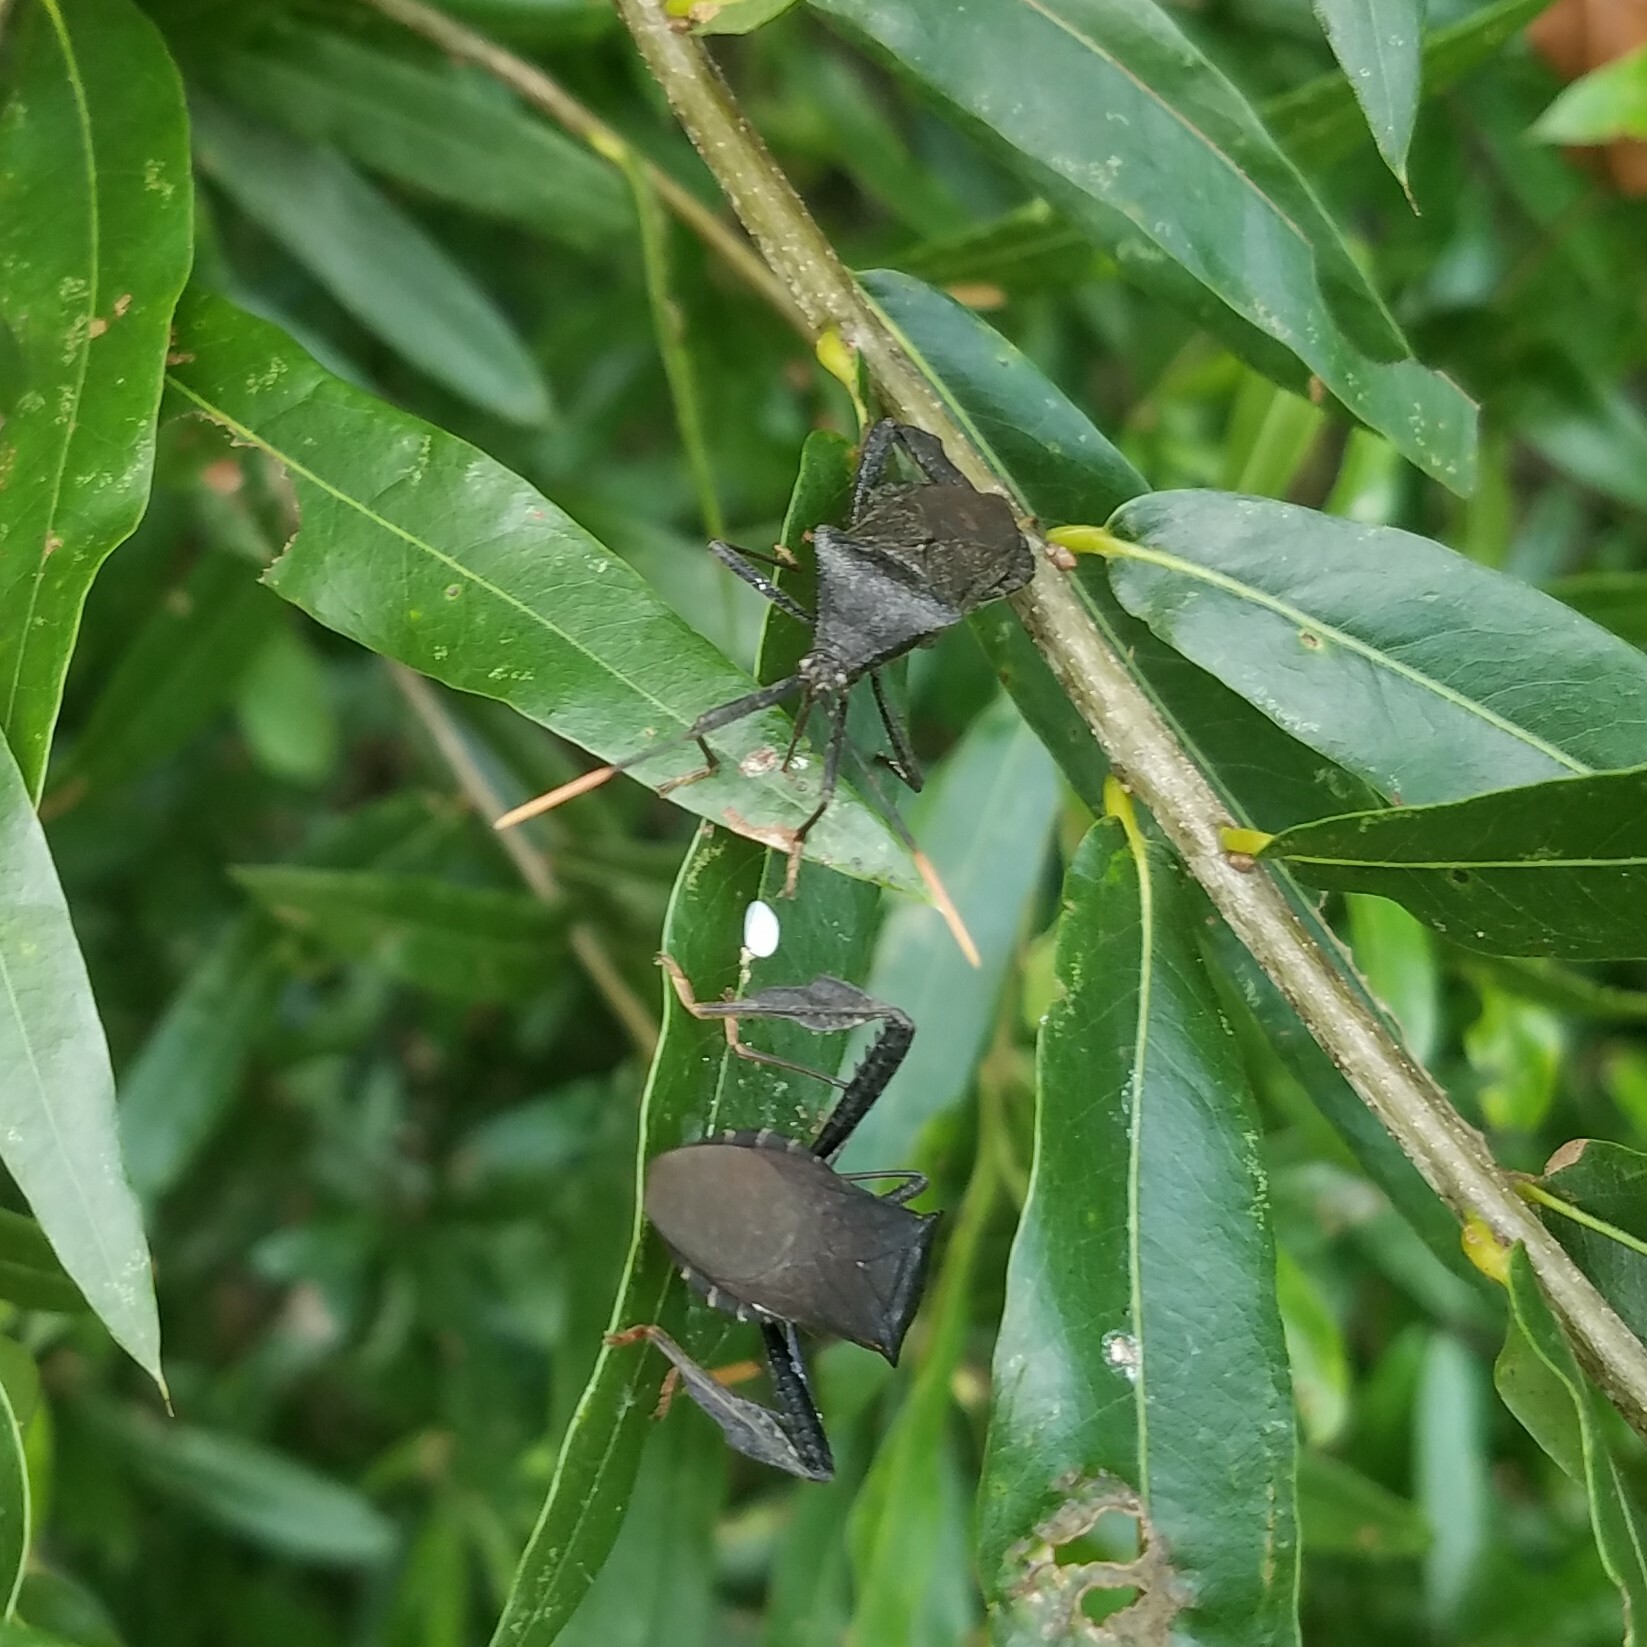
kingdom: Animalia
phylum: Arthropoda
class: Insecta
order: Hemiptera
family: Coreidae
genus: Acanthocephala
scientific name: Acanthocephala terminalis
